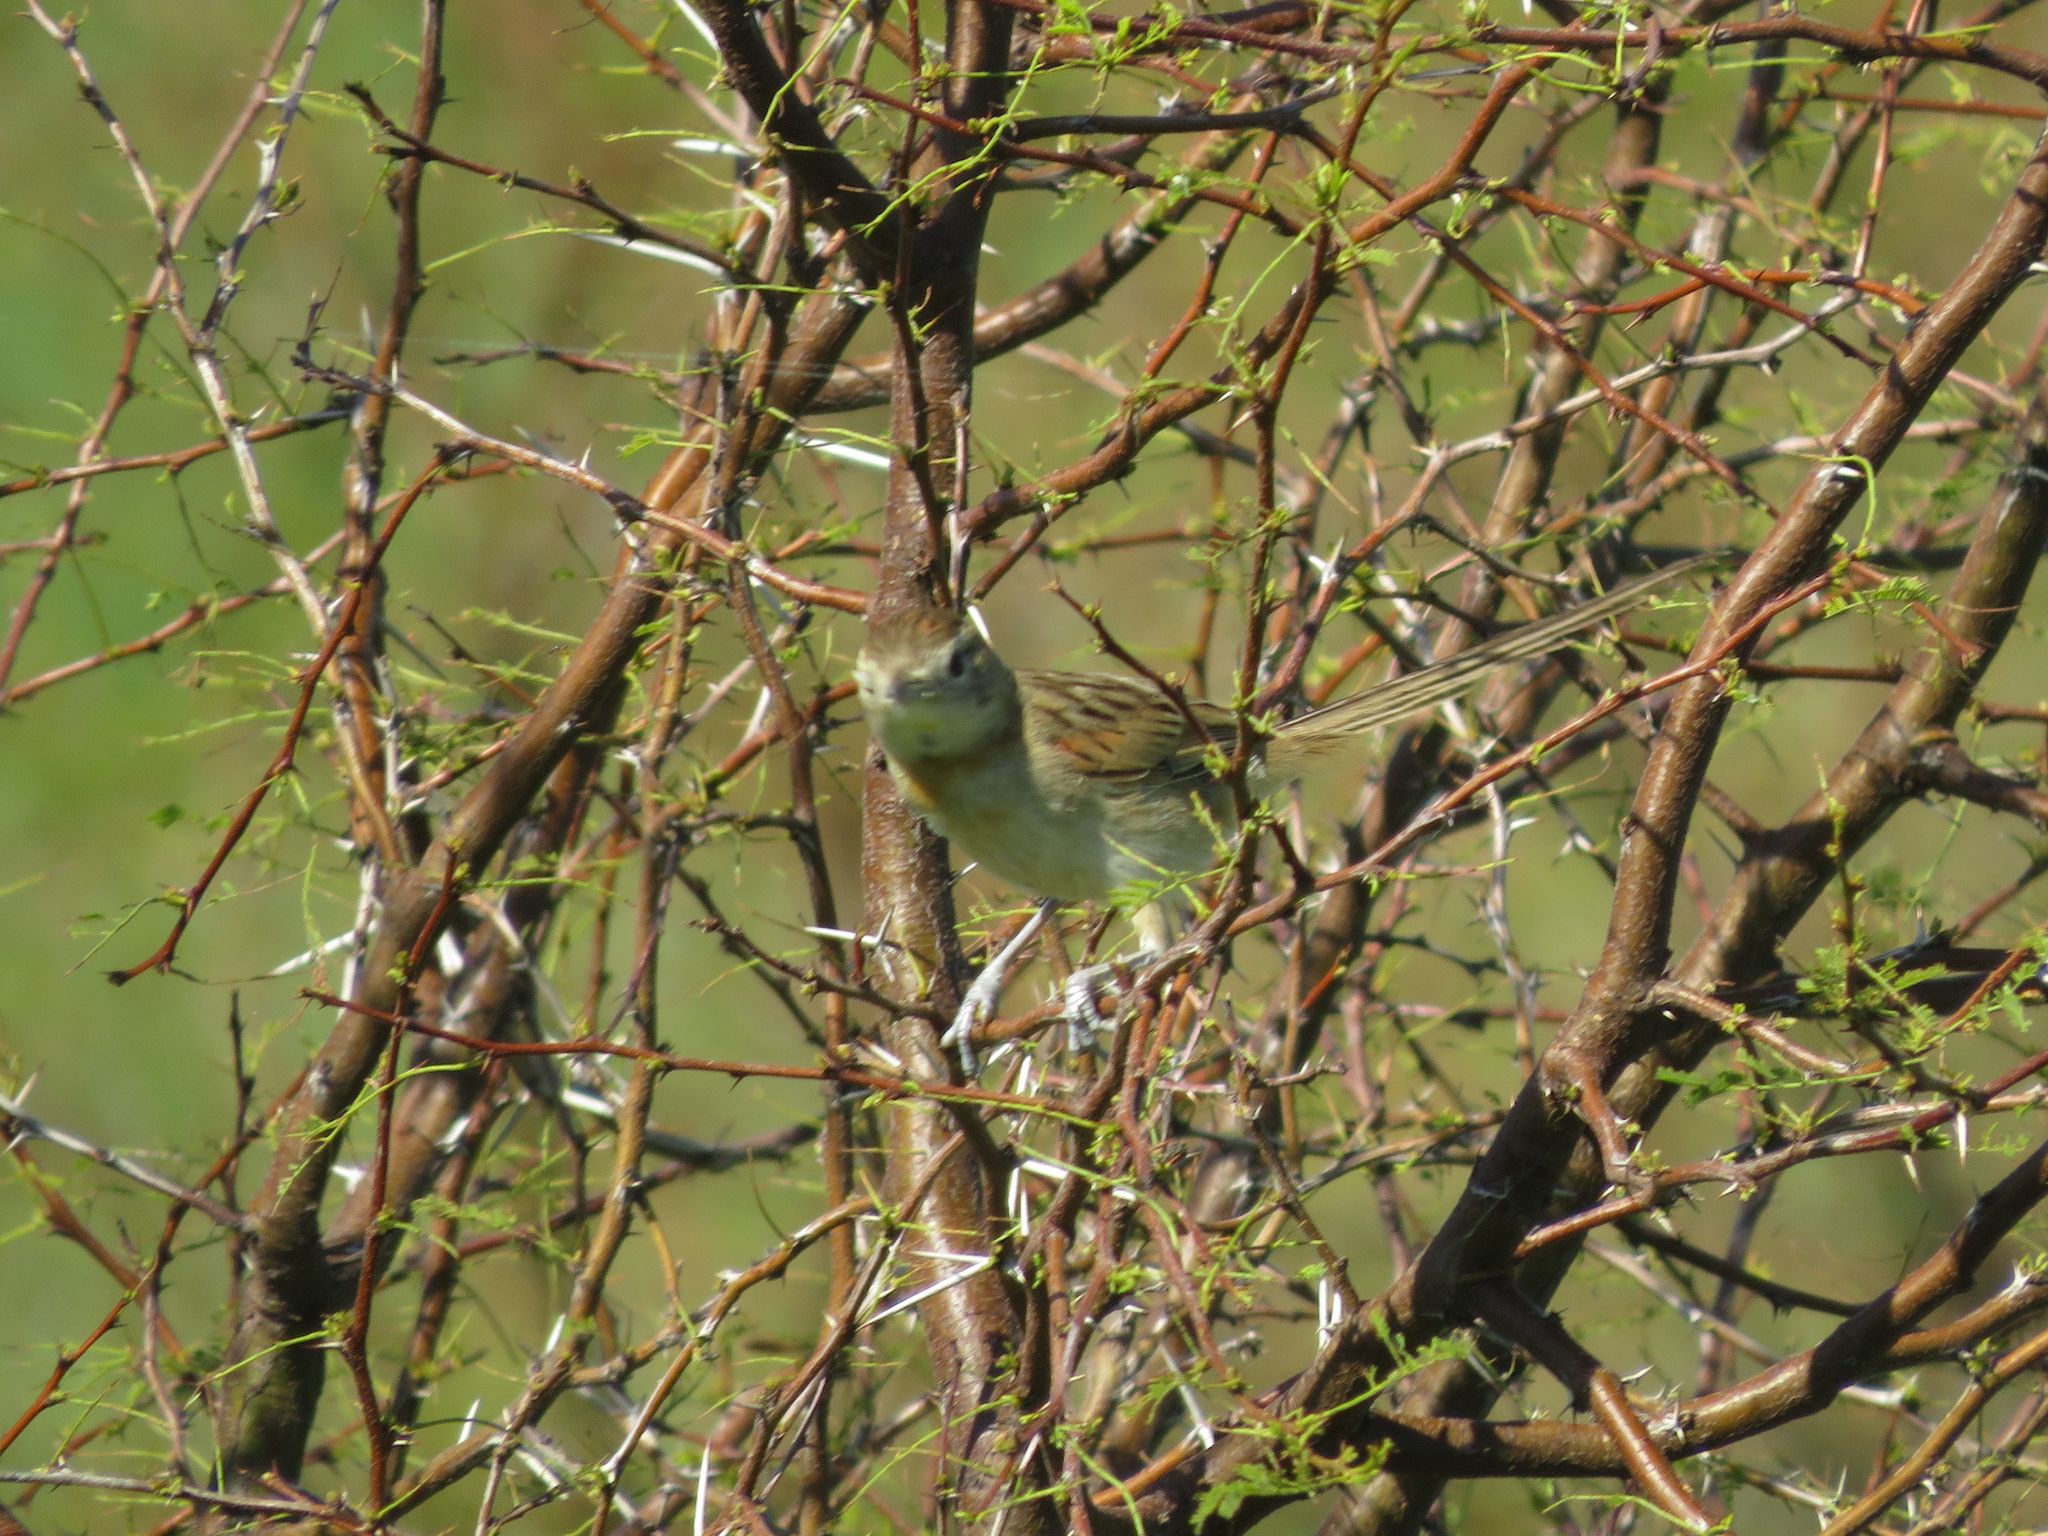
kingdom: Animalia
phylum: Chordata
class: Aves
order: Passeriformes
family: Furnariidae
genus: Schoeniophylax
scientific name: Schoeniophylax phryganophilus
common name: Chotoy spinetail
